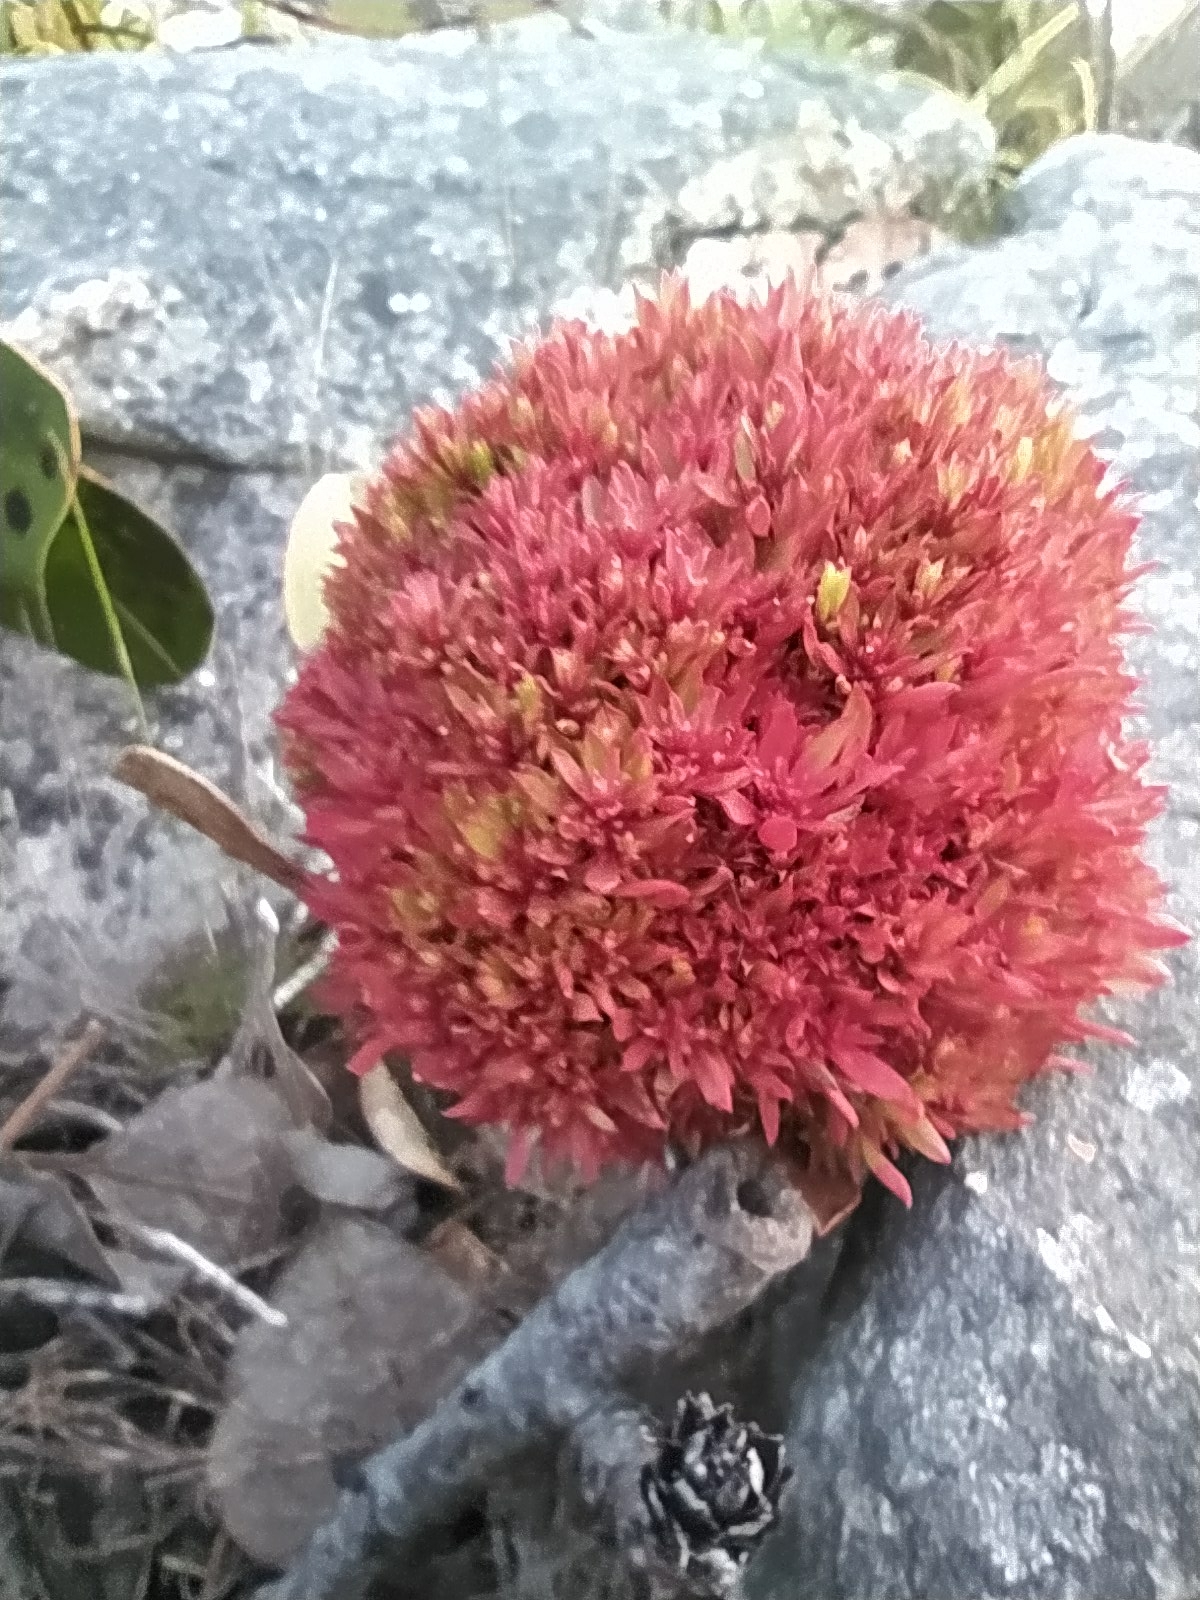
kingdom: Plantae
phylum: Tracheophyta
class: Magnoliopsida
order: Proteales
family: Proteaceae
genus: Protea
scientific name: Protea cynaroides
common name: King protea
